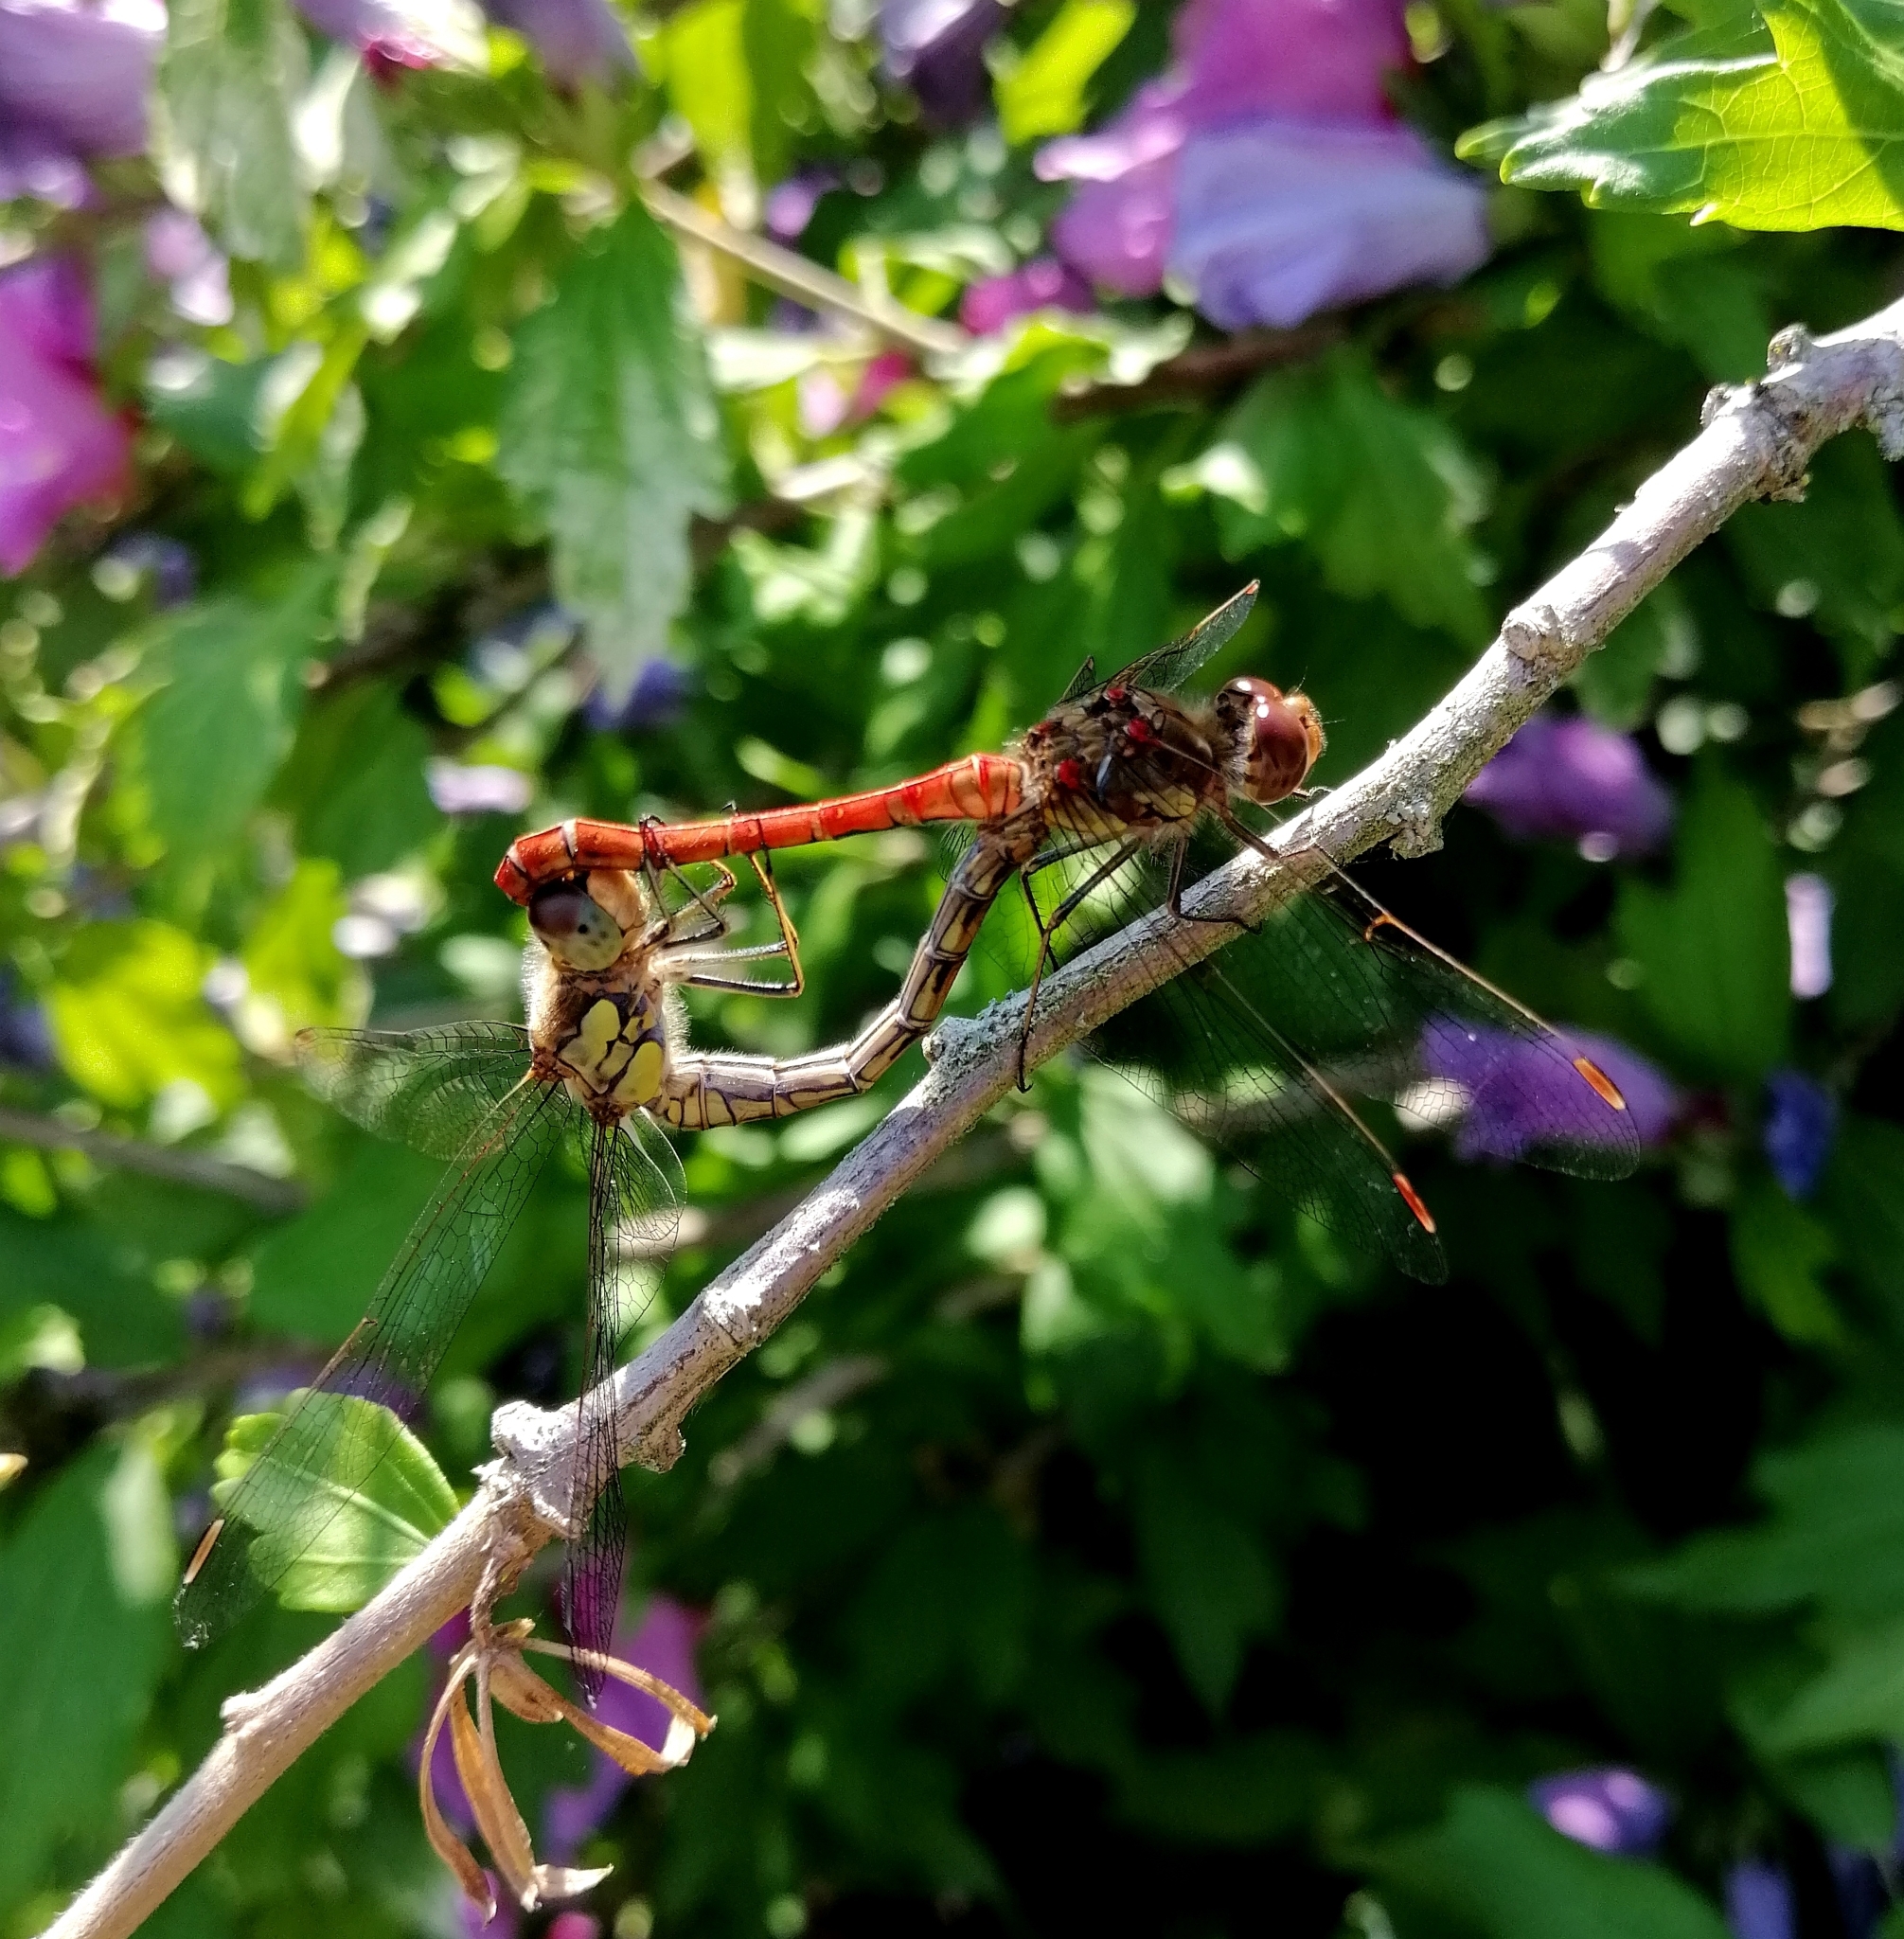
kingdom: Animalia
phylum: Arthropoda
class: Insecta
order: Odonata
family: Libellulidae
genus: Sympetrum
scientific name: Sympetrum striolatum
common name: Common darter
